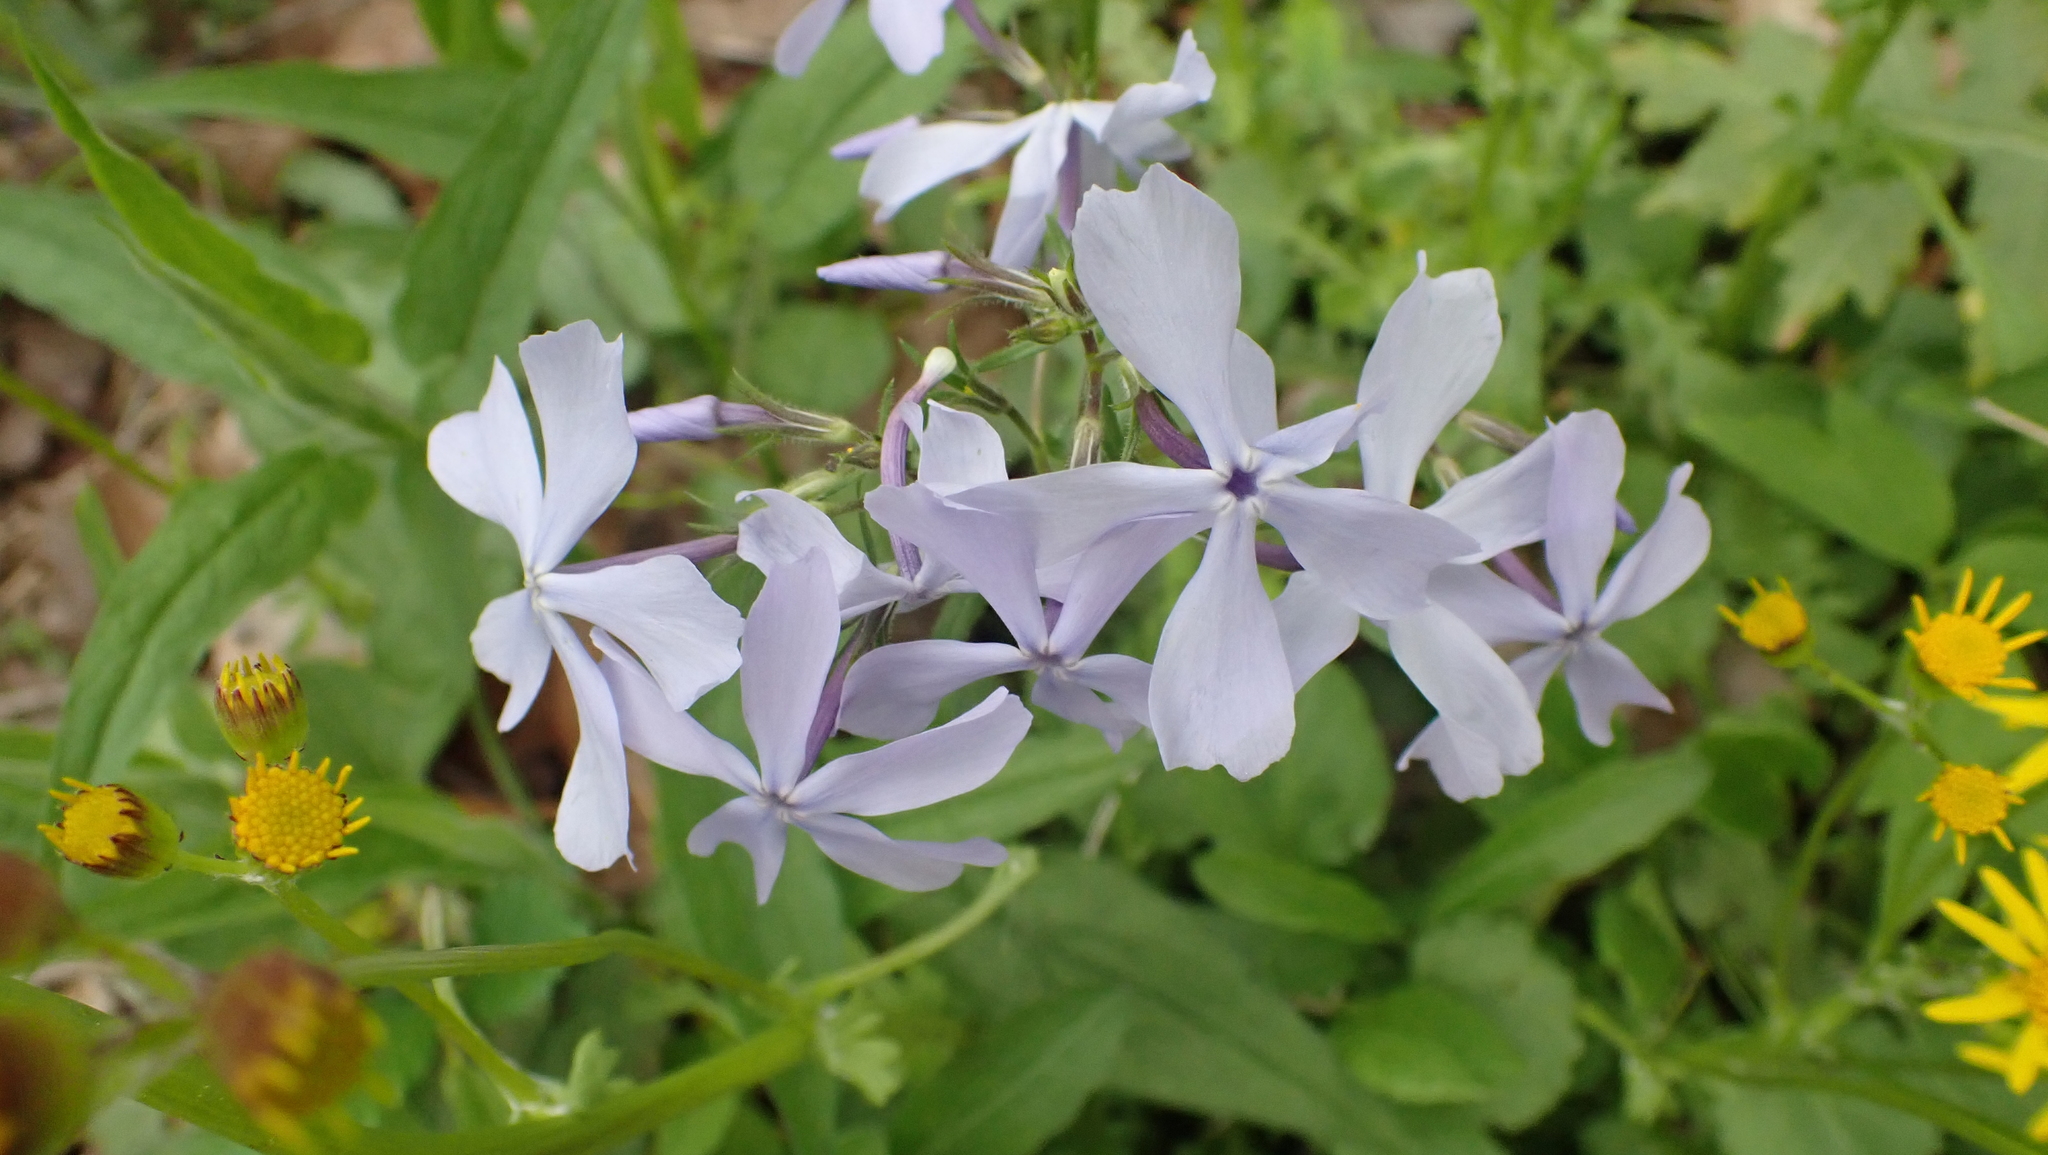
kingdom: Plantae
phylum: Tracheophyta
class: Magnoliopsida
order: Ericales
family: Polemoniaceae
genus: Phlox
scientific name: Phlox divaricata
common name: Blue phlox
